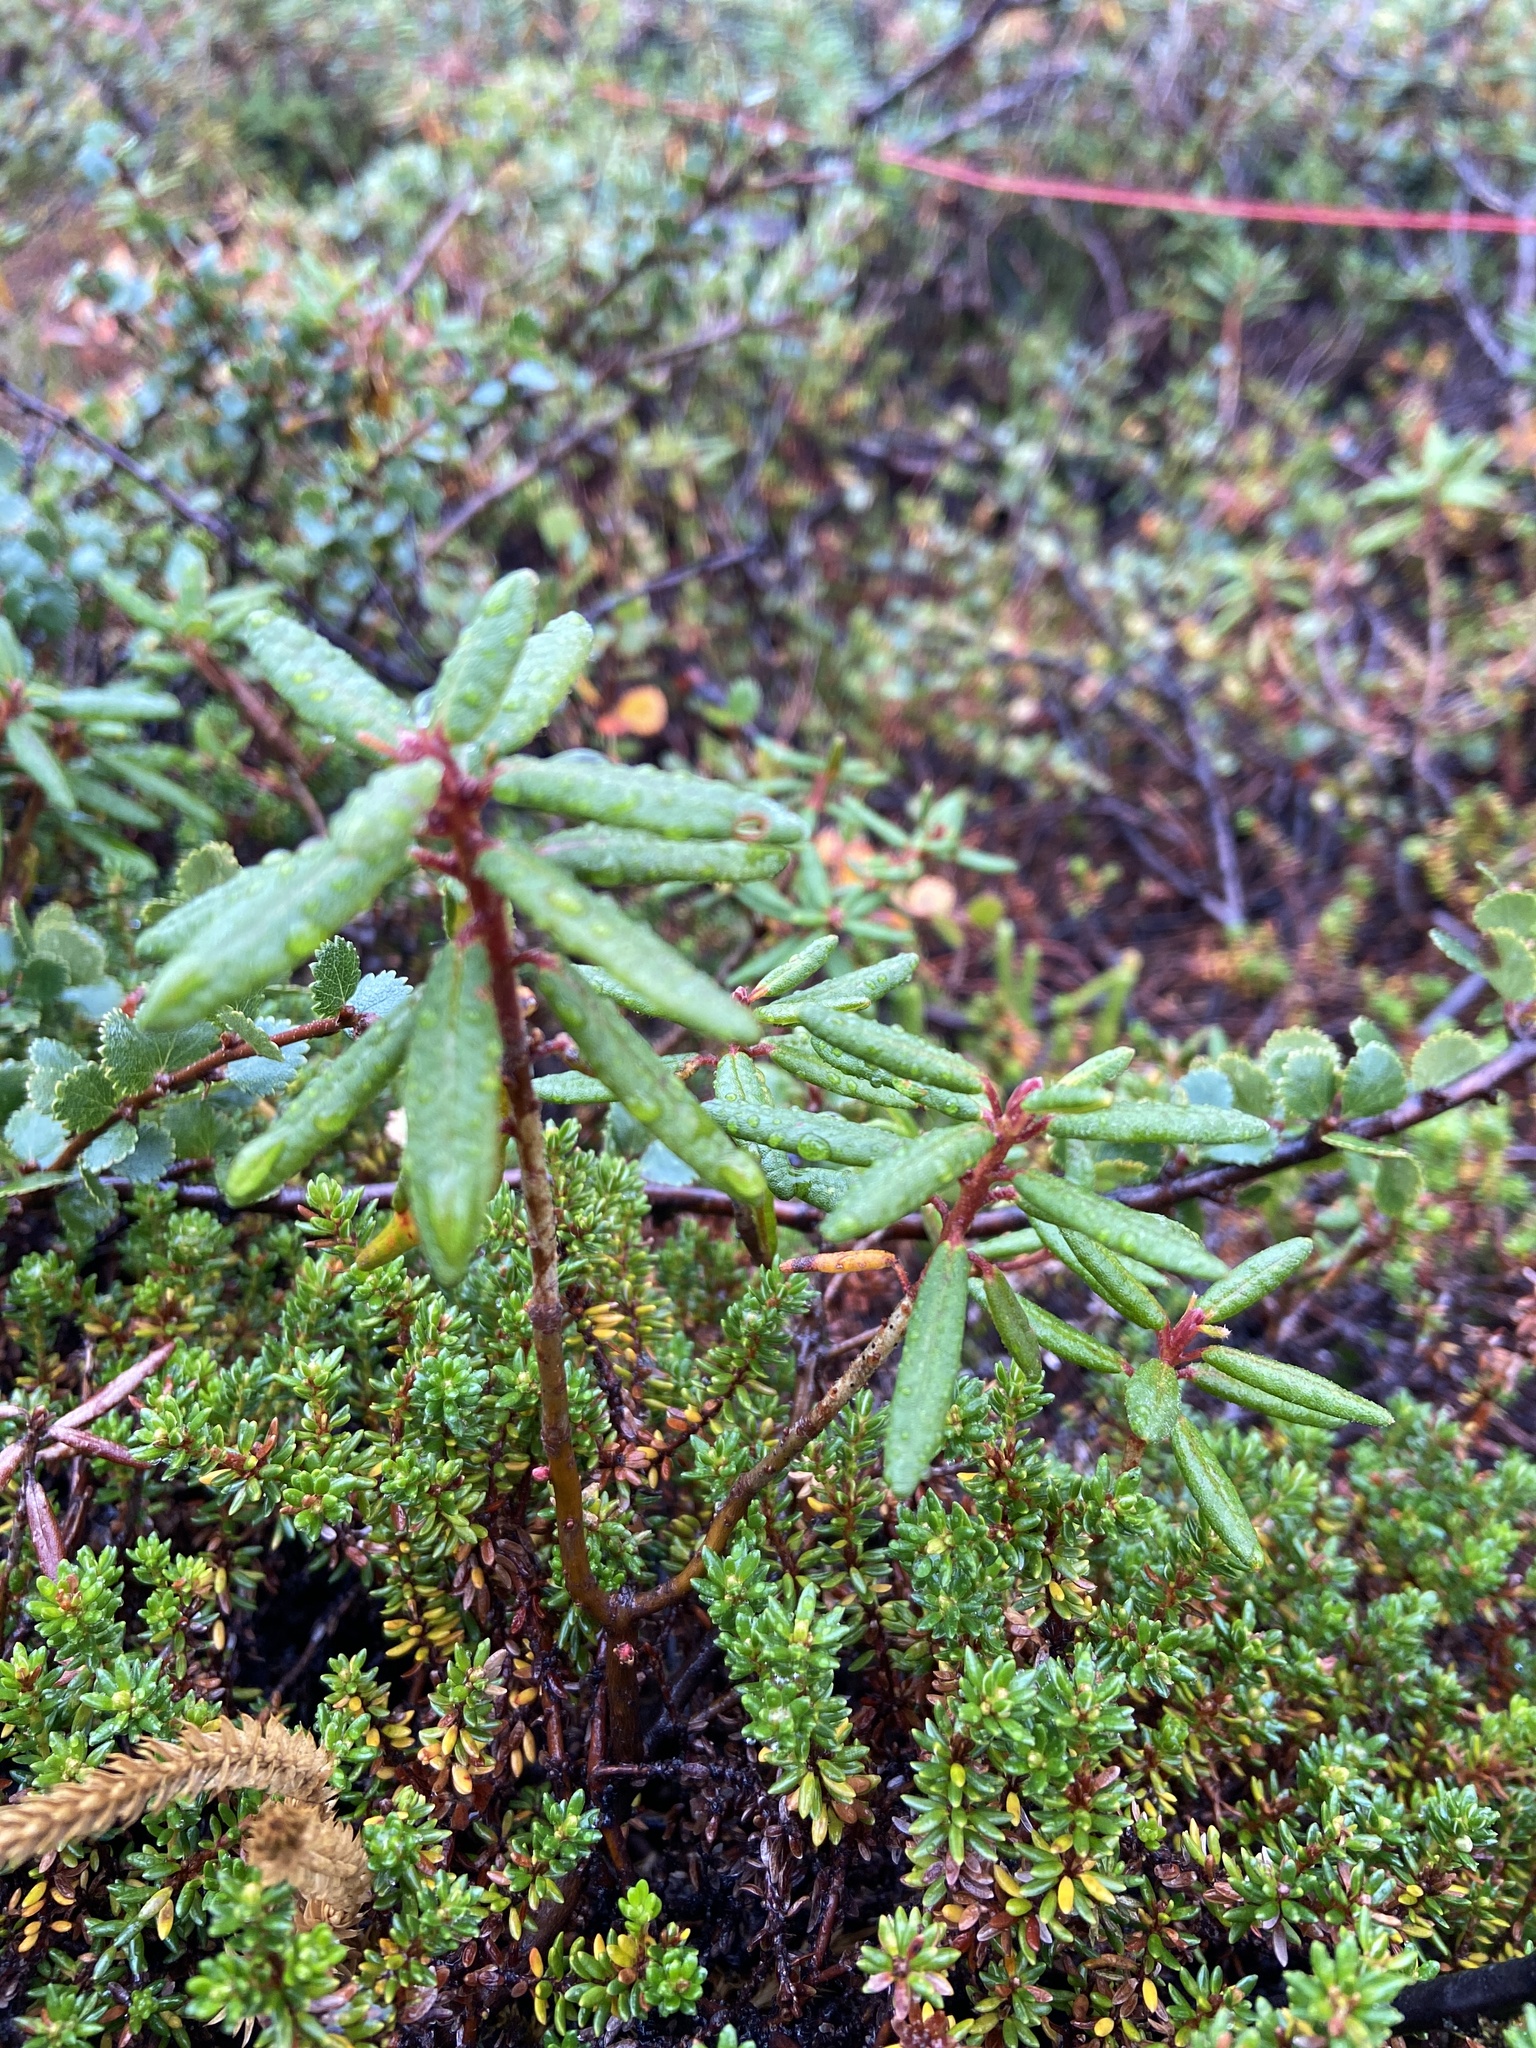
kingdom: Plantae
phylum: Tracheophyta
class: Magnoliopsida
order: Ericales
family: Ericaceae
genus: Rhododendron
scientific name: Rhododendron groenlandicum
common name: Bog labrador tea
